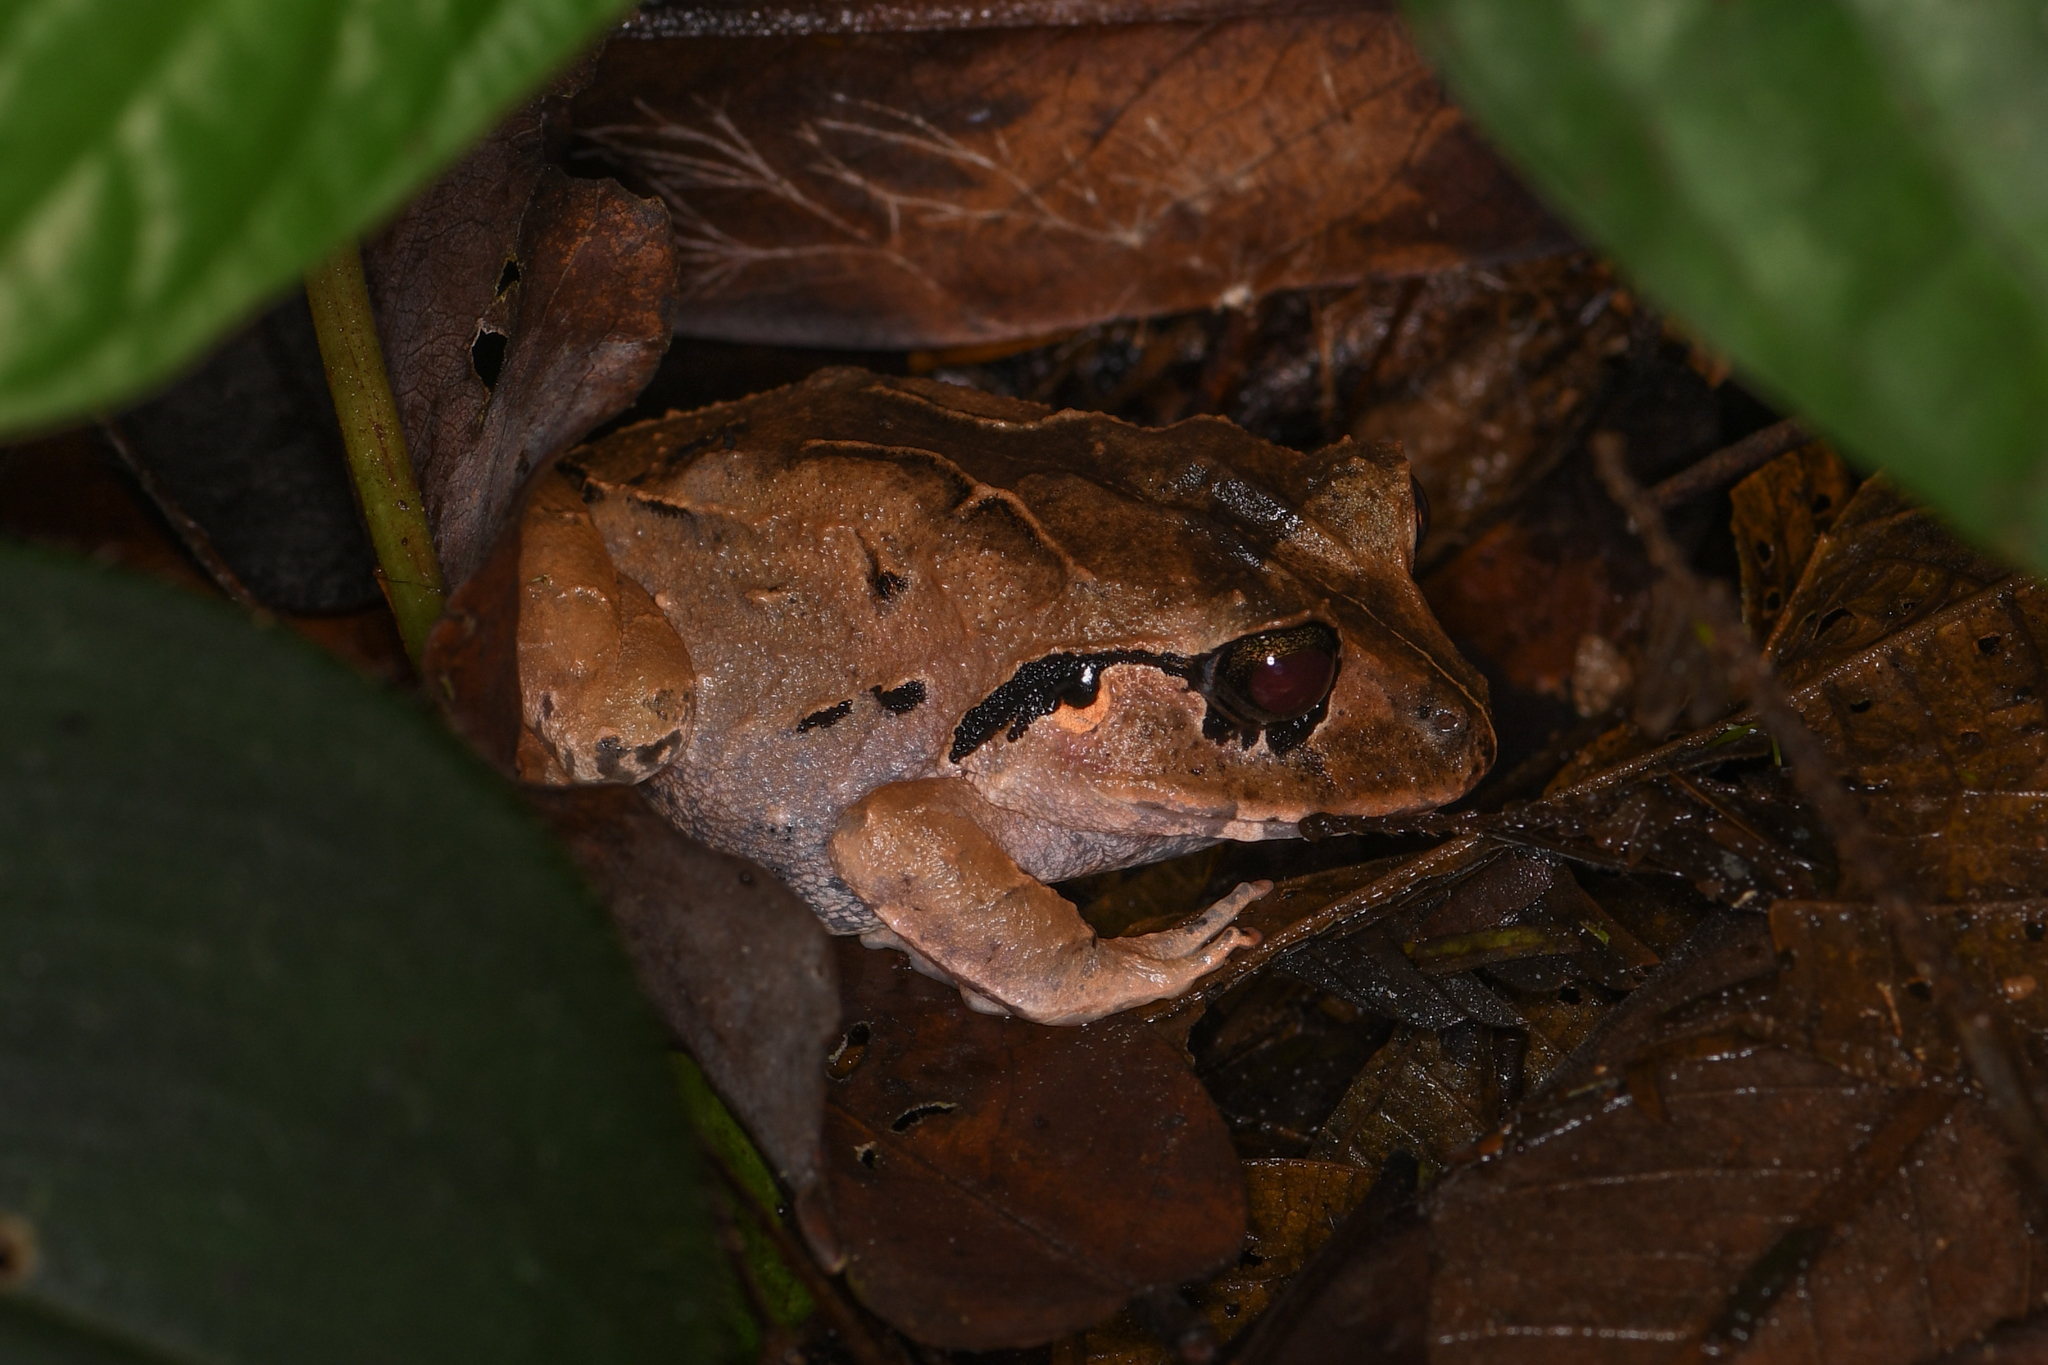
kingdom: Animalia
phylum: Chordata
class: Amphibia
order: Anura
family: Craugastoridae
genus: Craugastor
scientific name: Craugastor megacephalus
